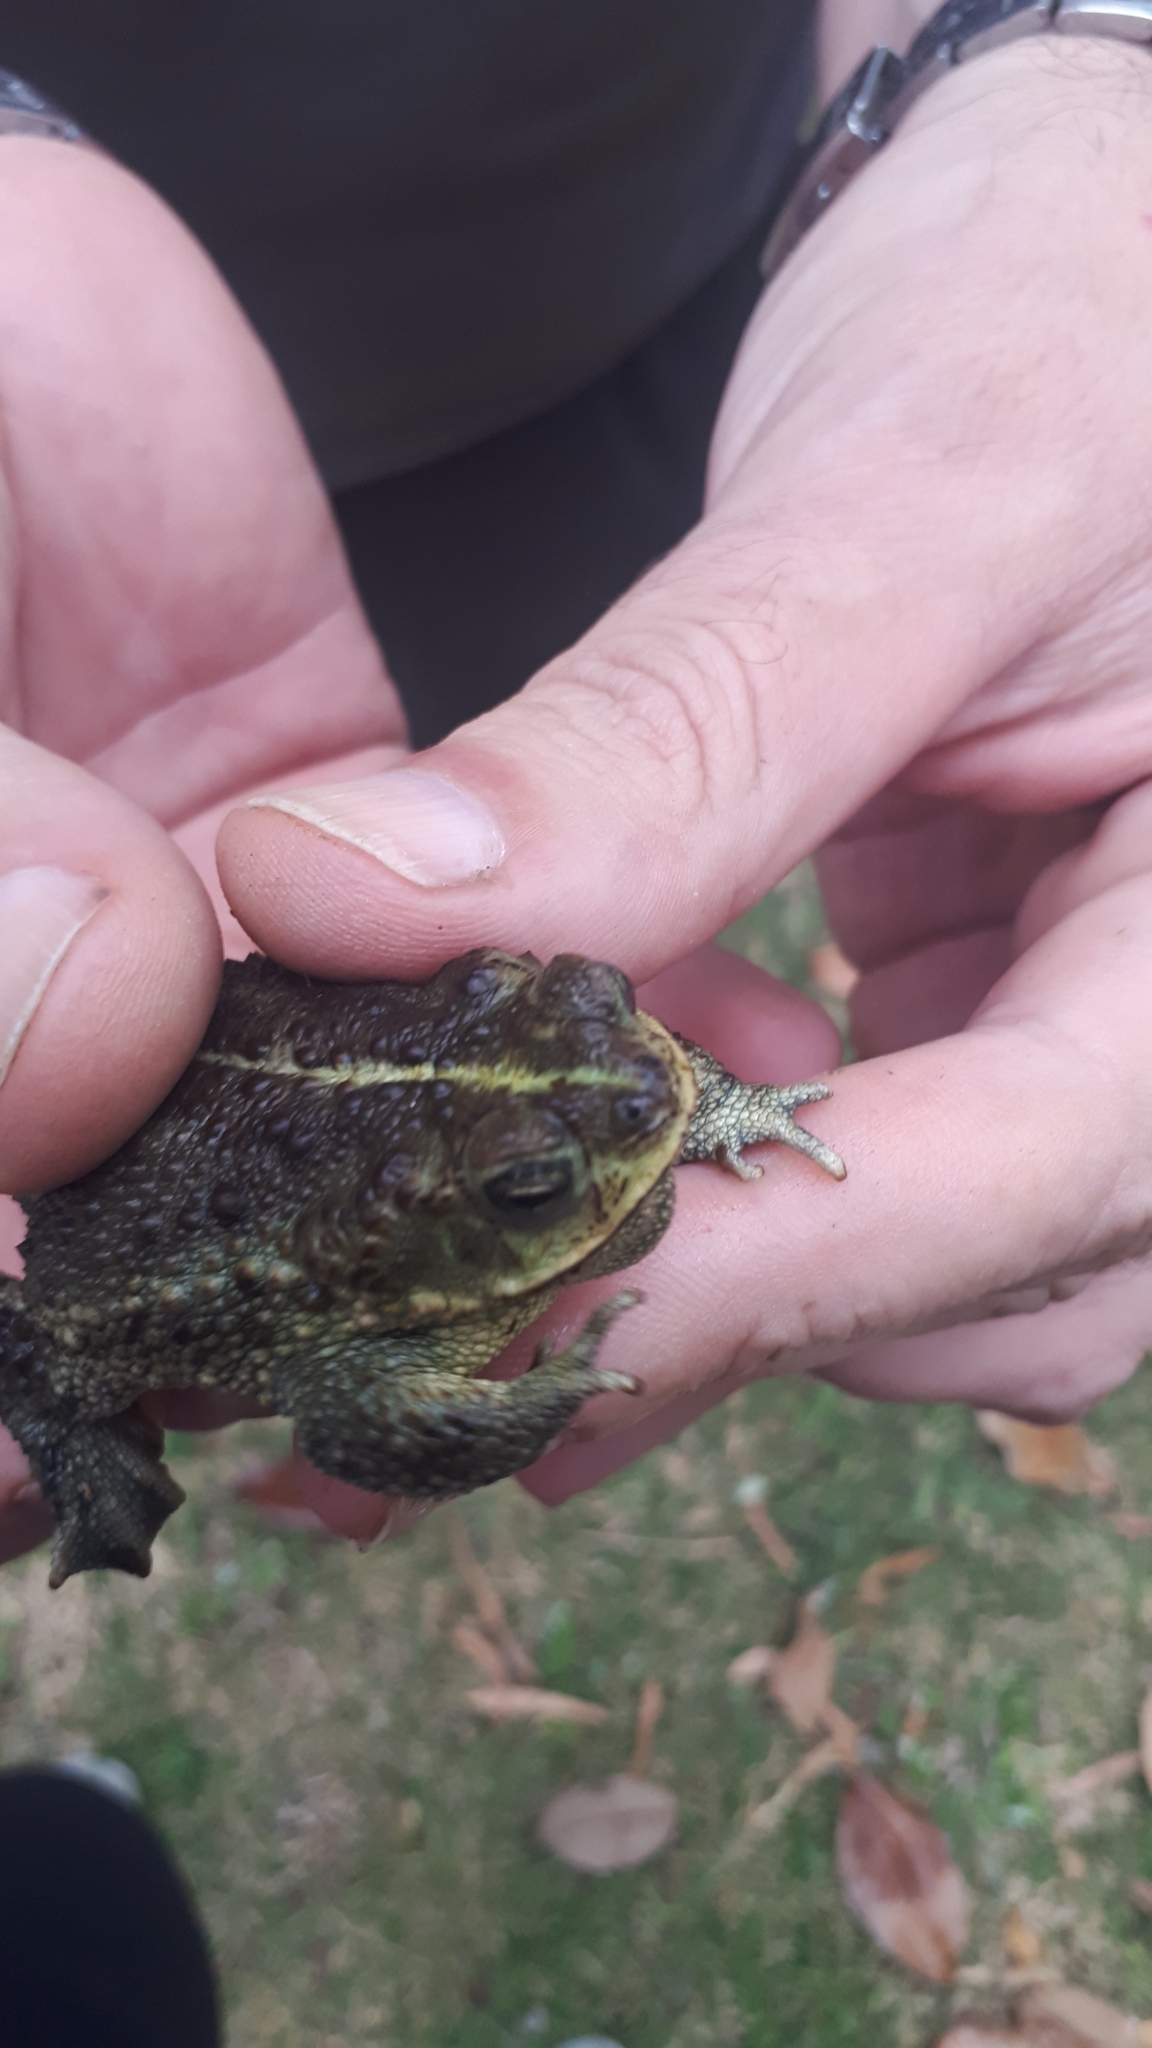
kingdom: Animalia
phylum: Chordata
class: Amphibia
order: Anura
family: Bufonidae
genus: Rhinella
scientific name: Rhinella dorbignyi
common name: D´orbigny’s toad
